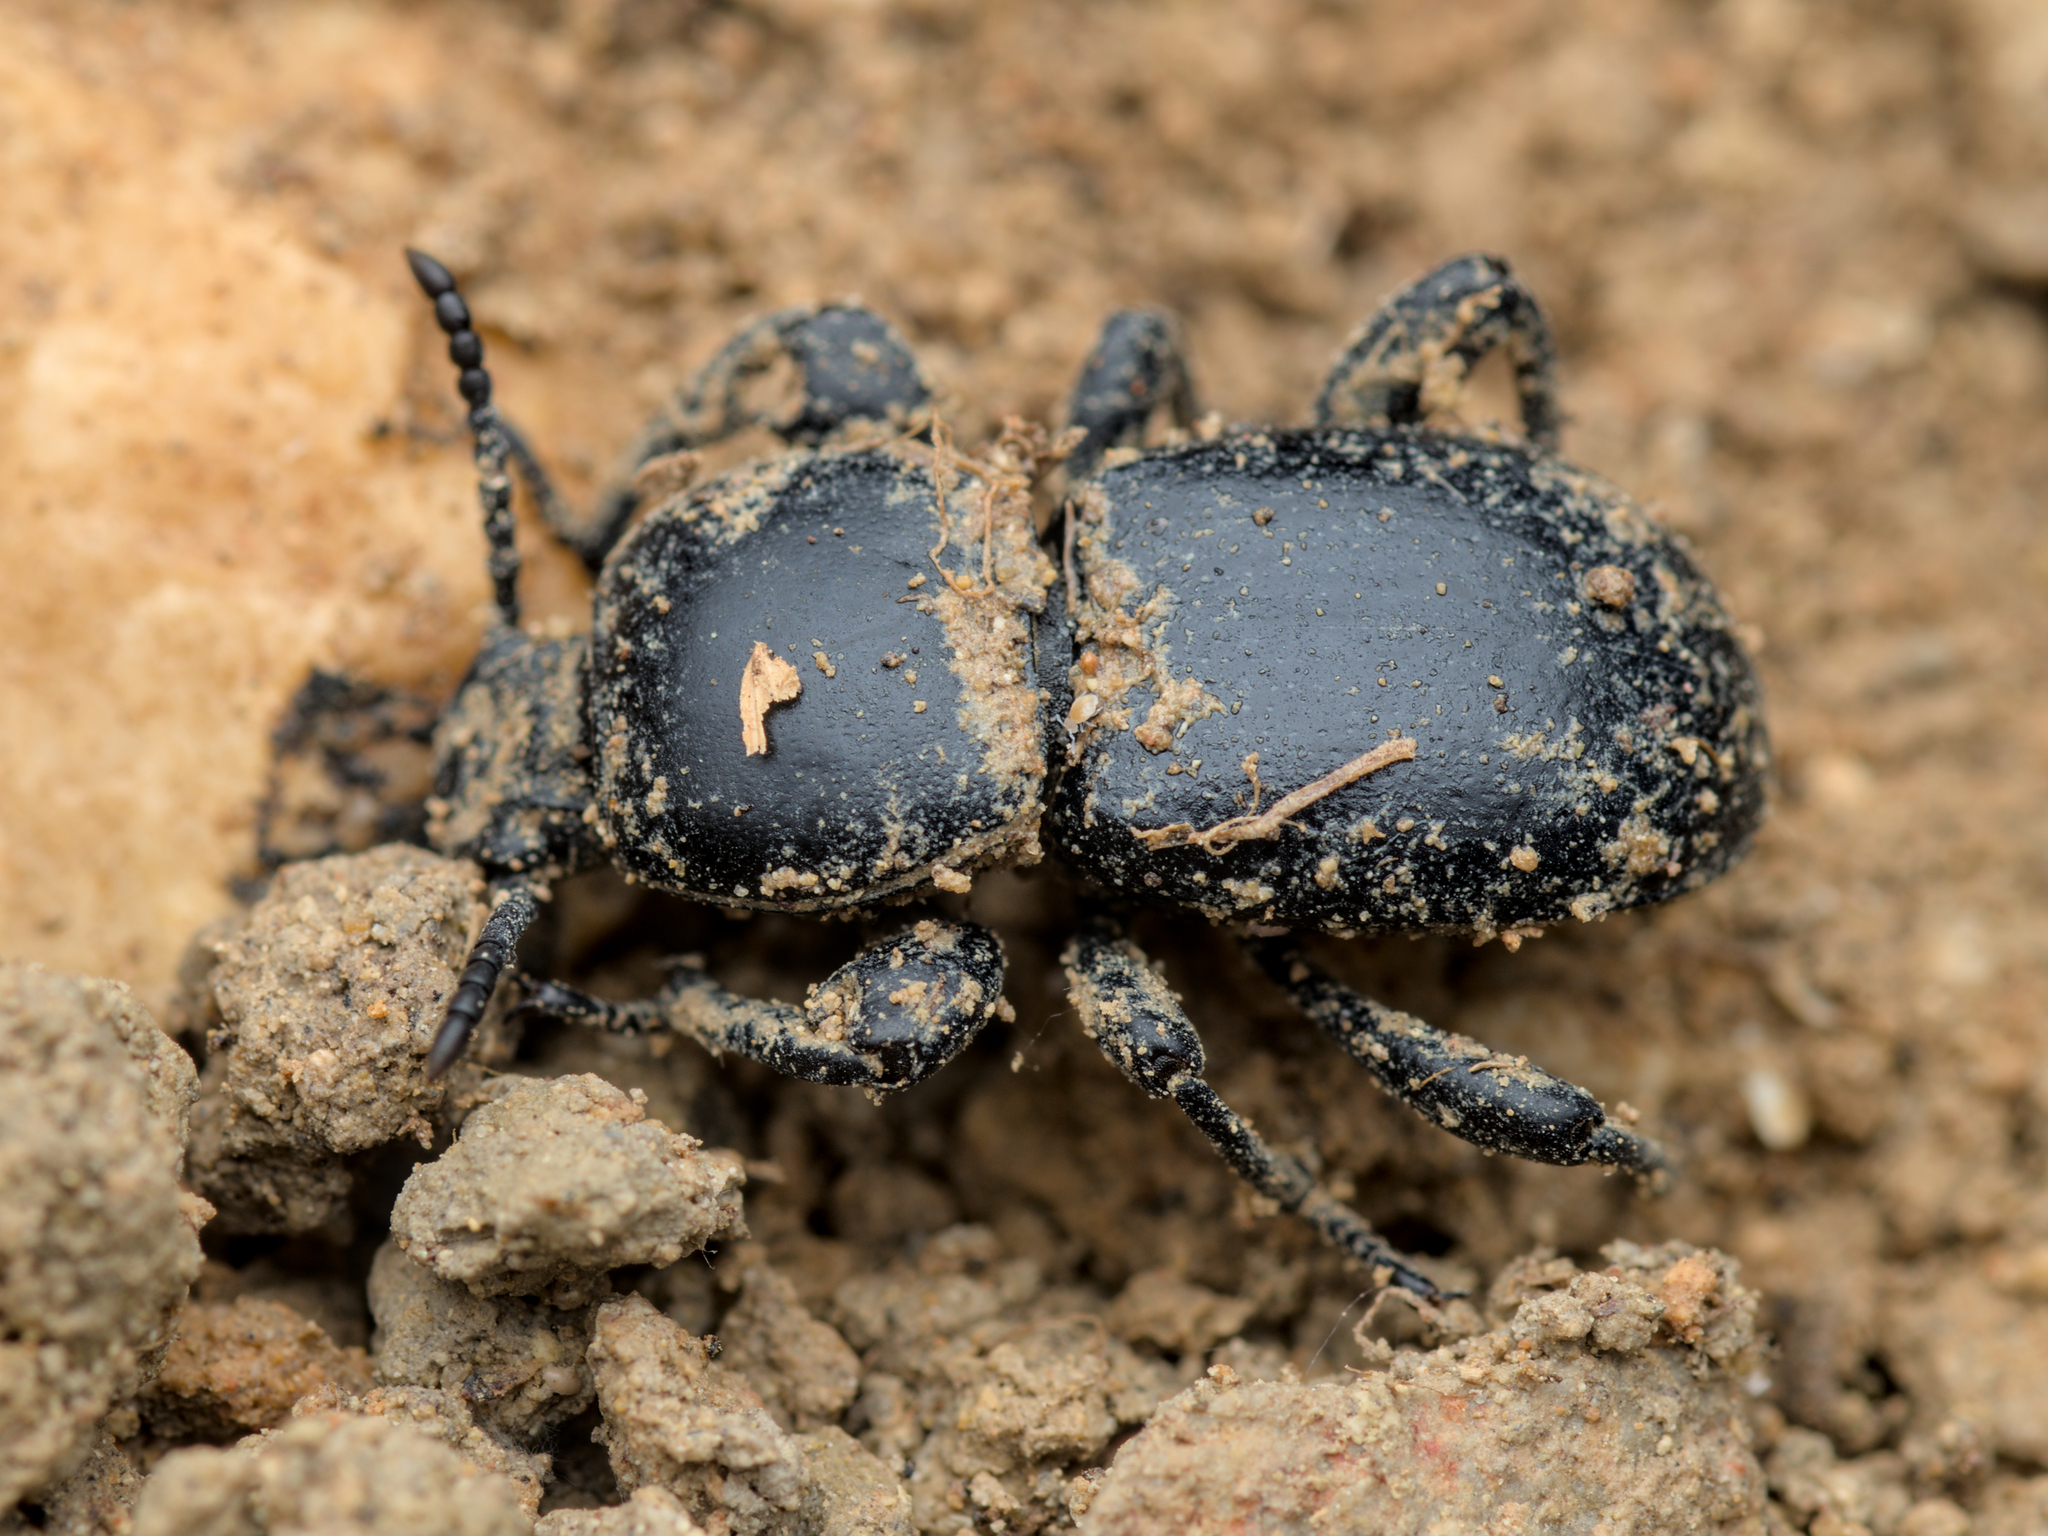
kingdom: Animalia
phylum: Arthropoda
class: Insecta
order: Coleoptera
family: Tenebrionidae
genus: Scaurus
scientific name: Scaurus atratus
